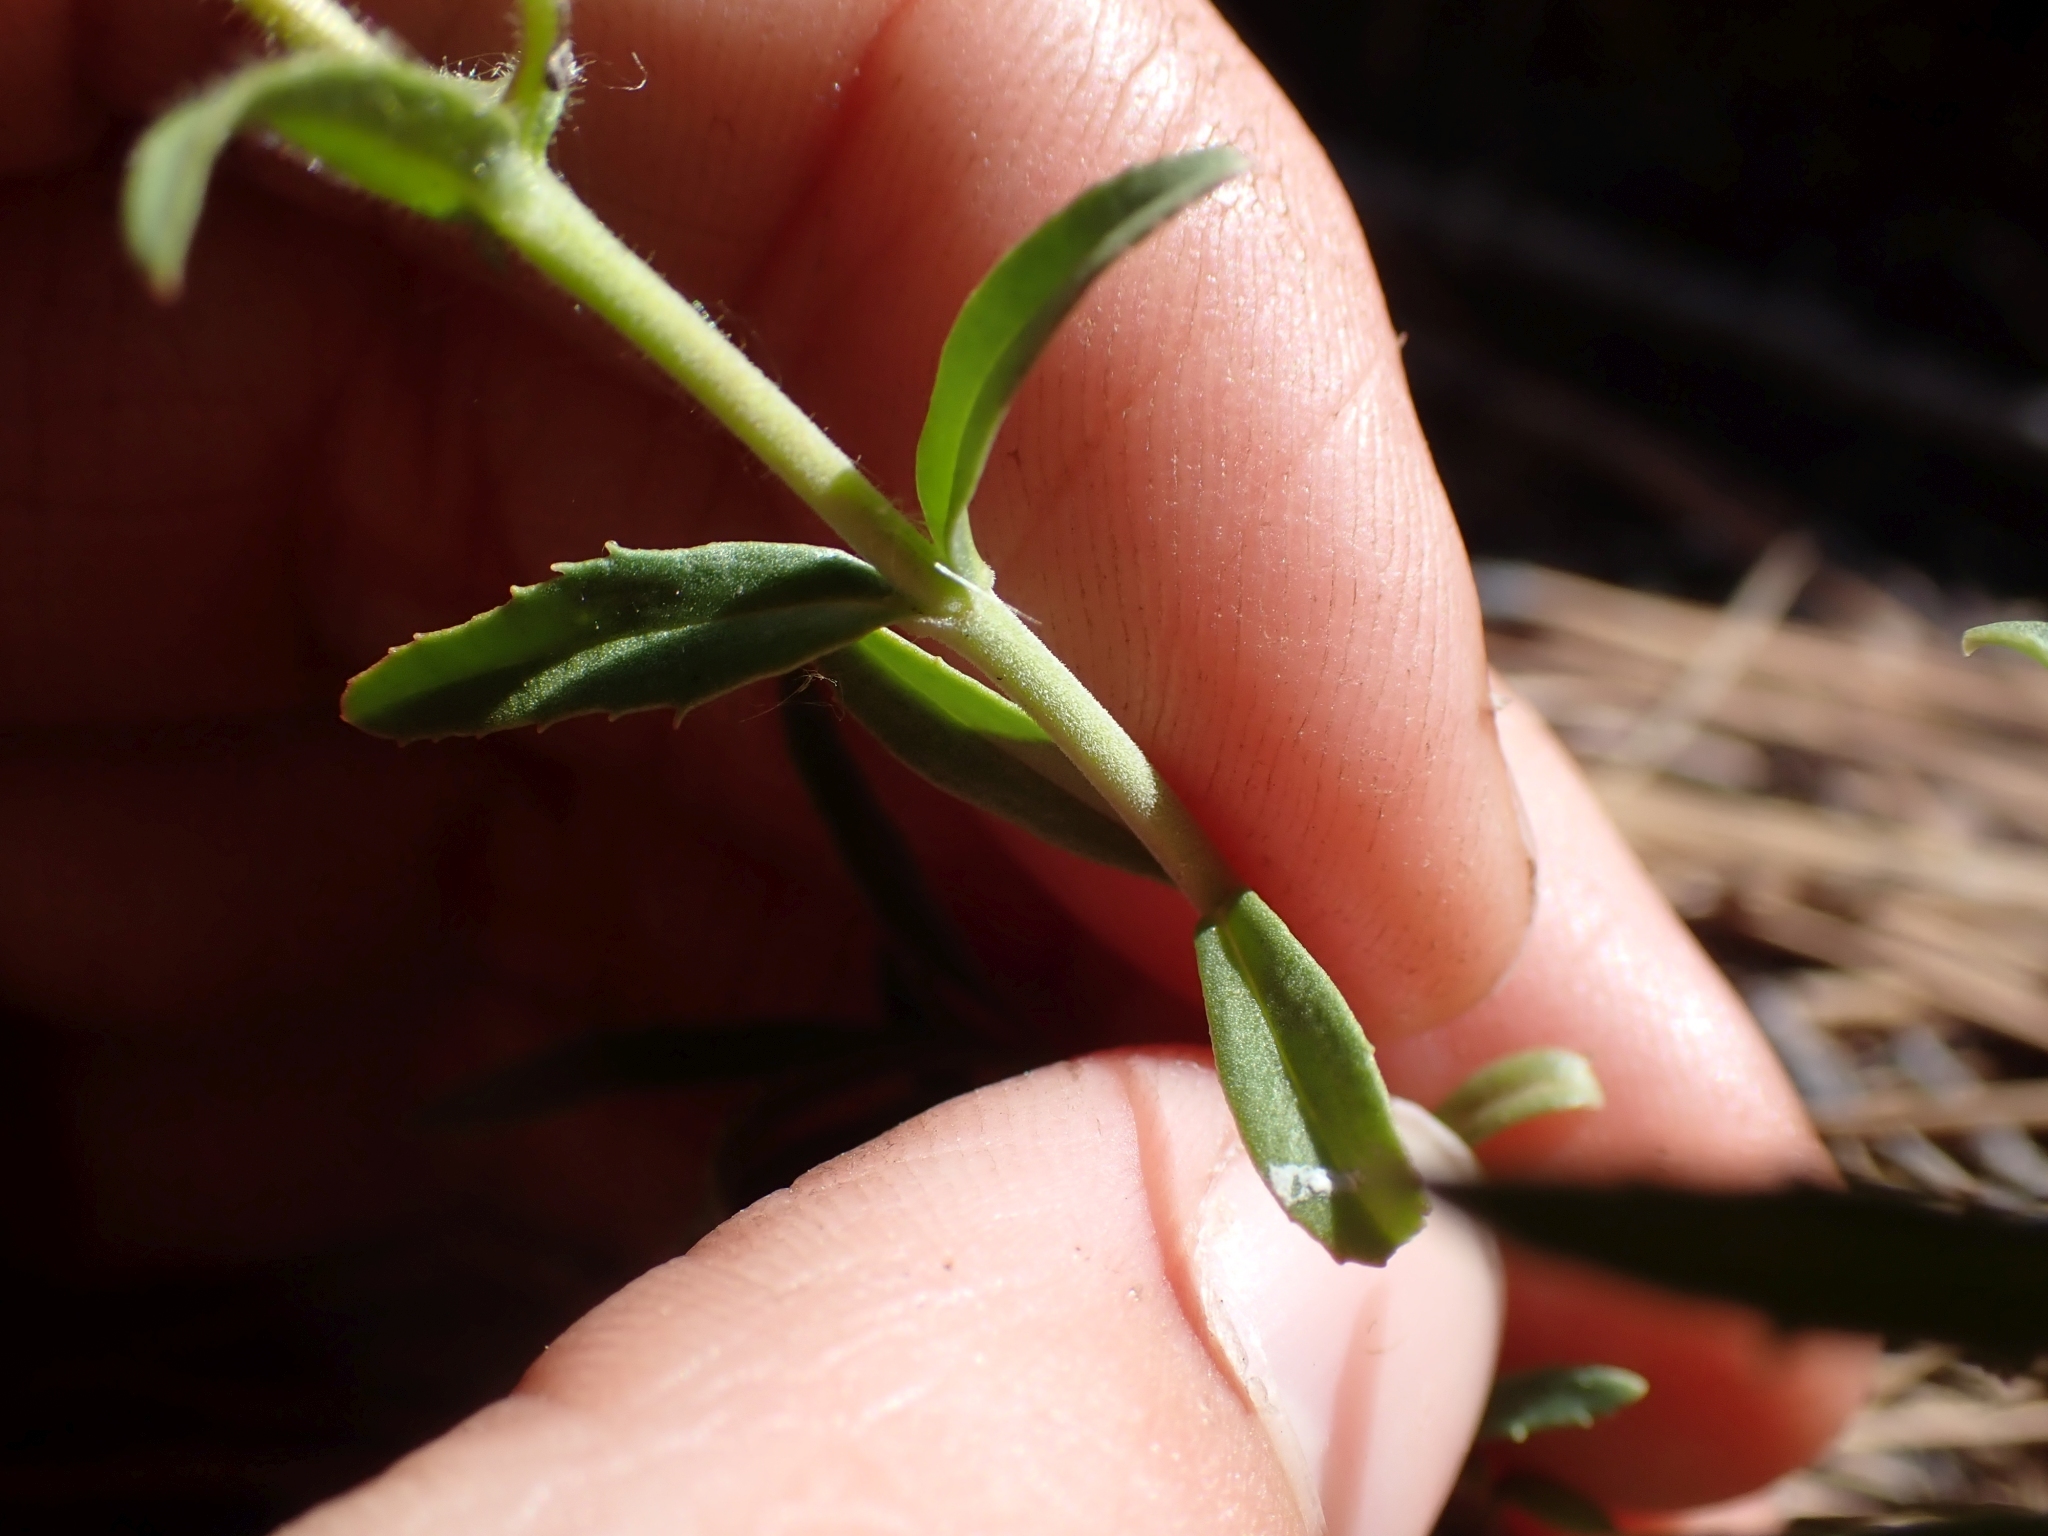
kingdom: Plantae
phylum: Tracheophyta
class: Magnoliopsida
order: Lamiales
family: Plantaginaceae
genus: Penstemon
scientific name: Penstemon fruticosus
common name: Bush penstemon
